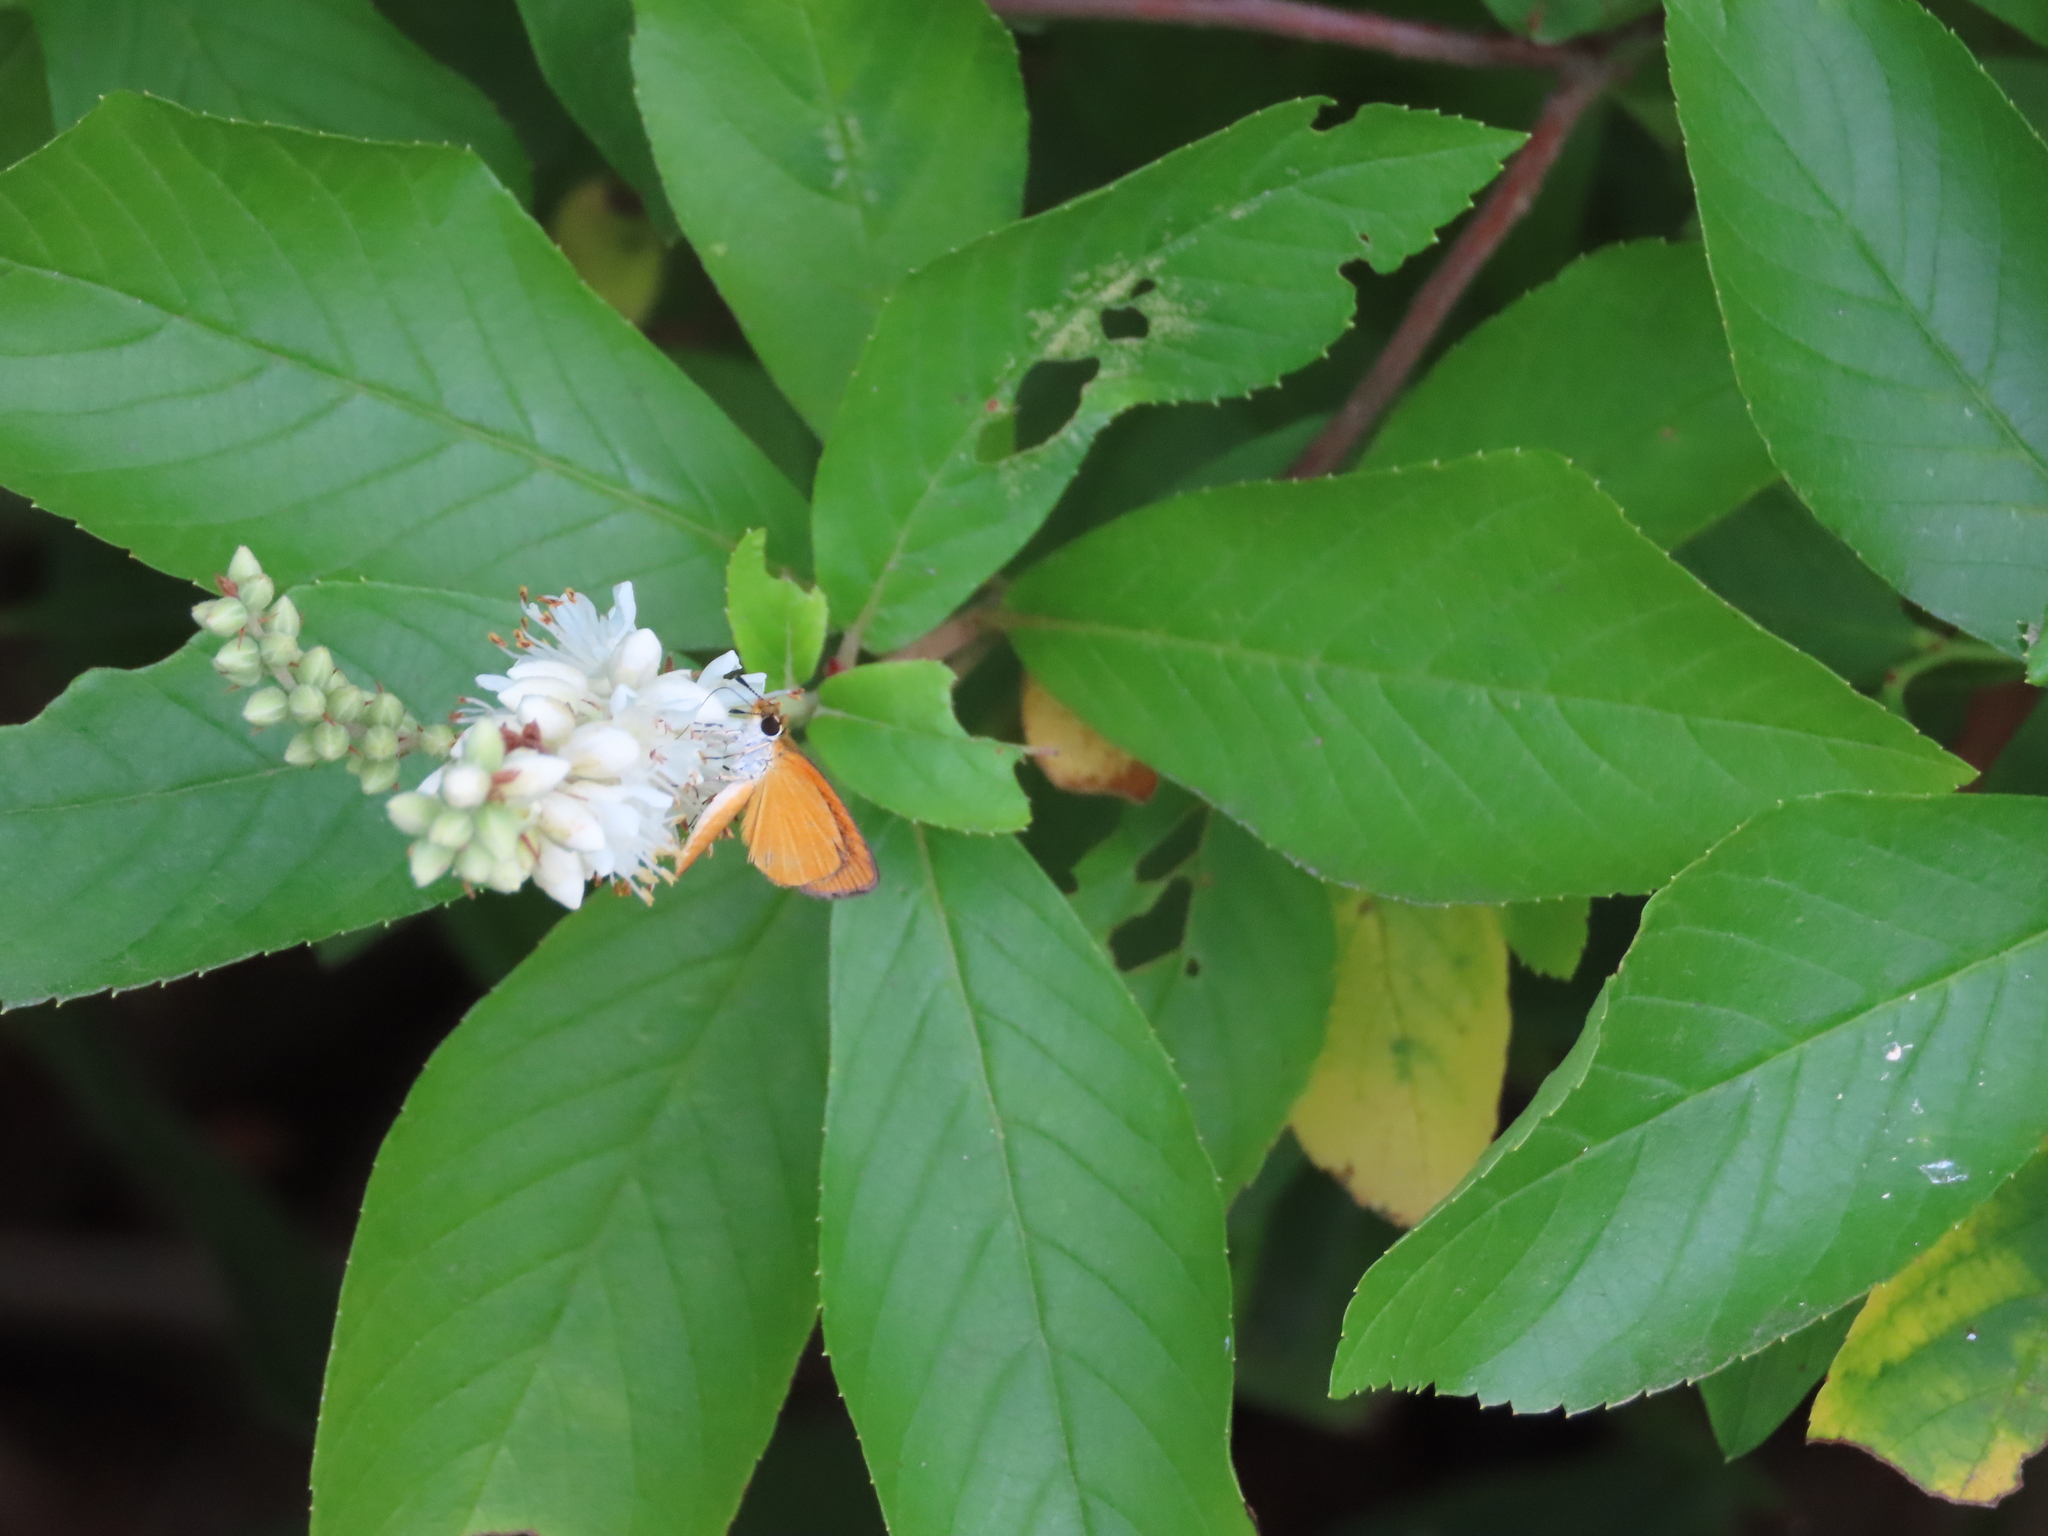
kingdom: Animalia
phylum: Arthropoda
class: Insecta
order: Lepidoptera
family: Hesperiidae
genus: Ancyloxypha
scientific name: Ancyloxypha numitor
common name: Least skipper
